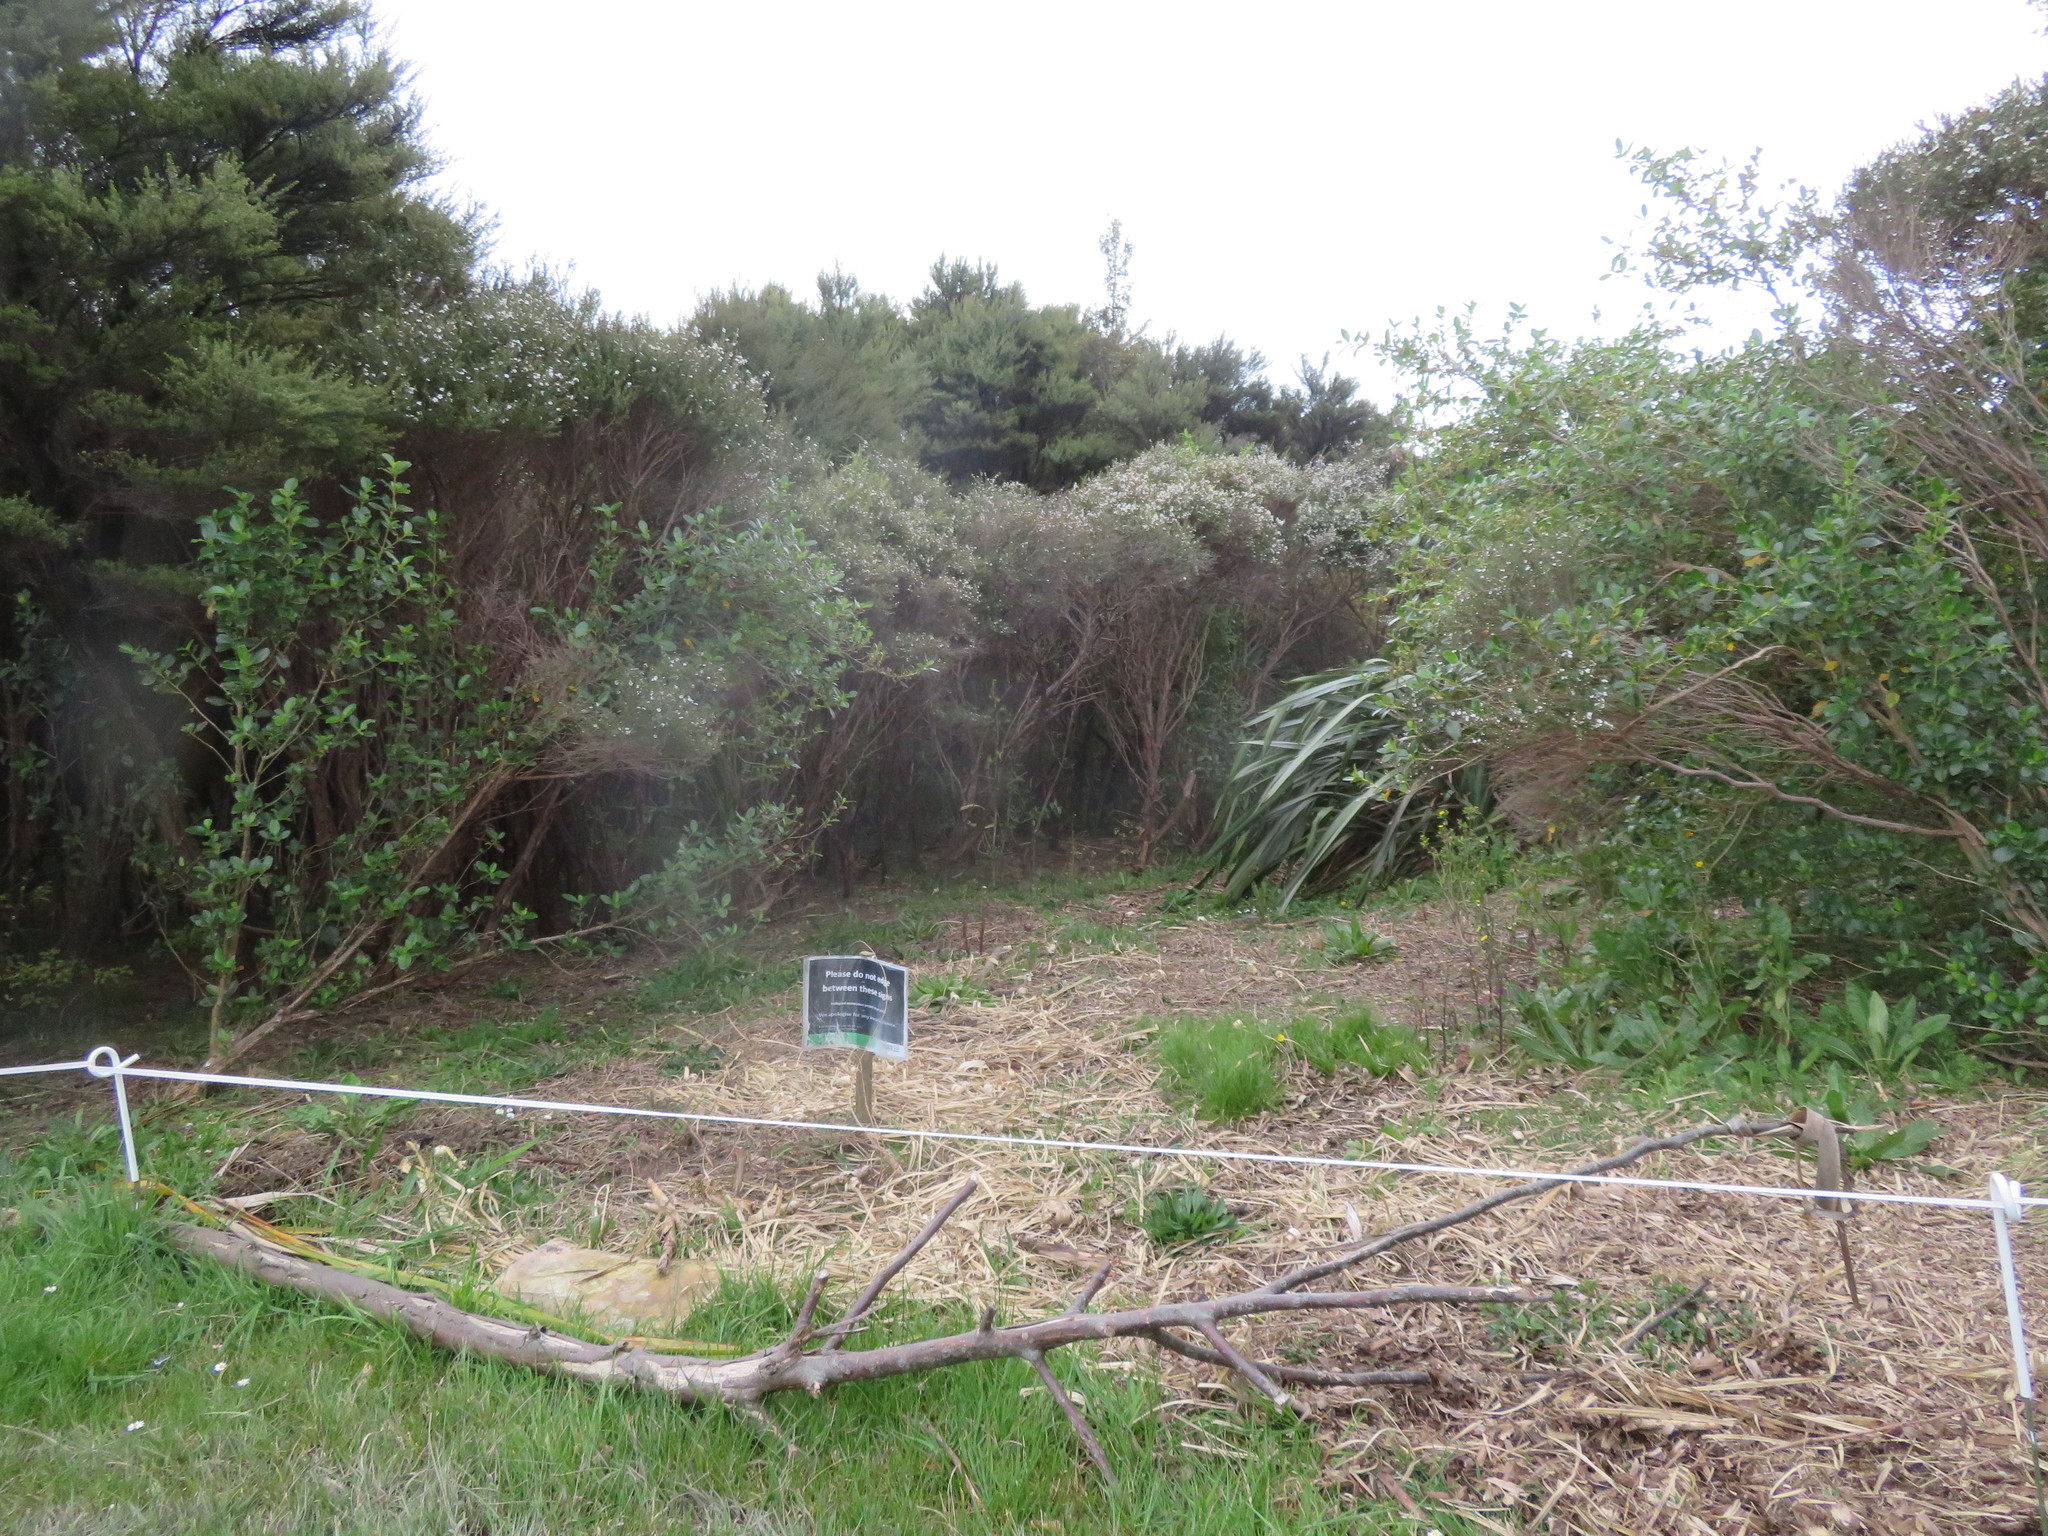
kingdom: Plantae
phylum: Tracheophyta
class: Liliopsida
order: Poales
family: Poaceae
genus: Cenchrus
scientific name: Cenchrus clandestinus
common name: Kikuyugrass
